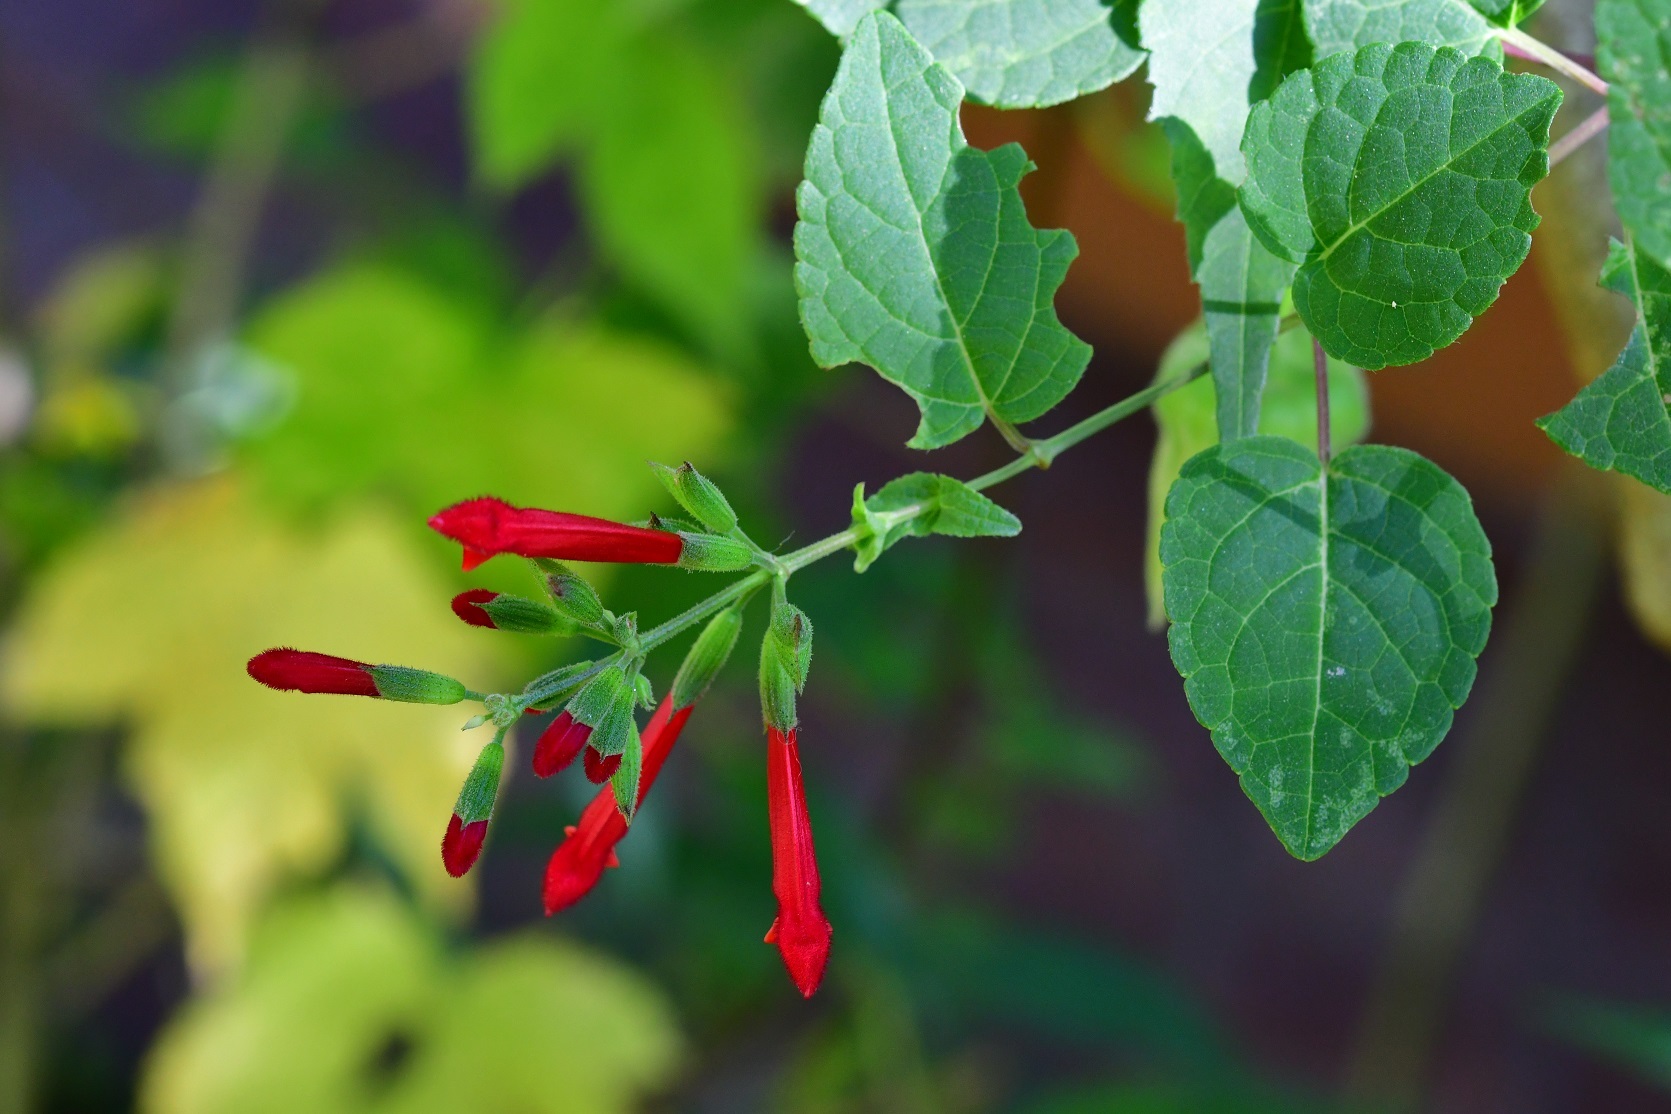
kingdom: Plantae
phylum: Tracheophyta
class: Magnoliopsida
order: Lamiales
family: Lamiaceae
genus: Salvia
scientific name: Salvia holwayi
